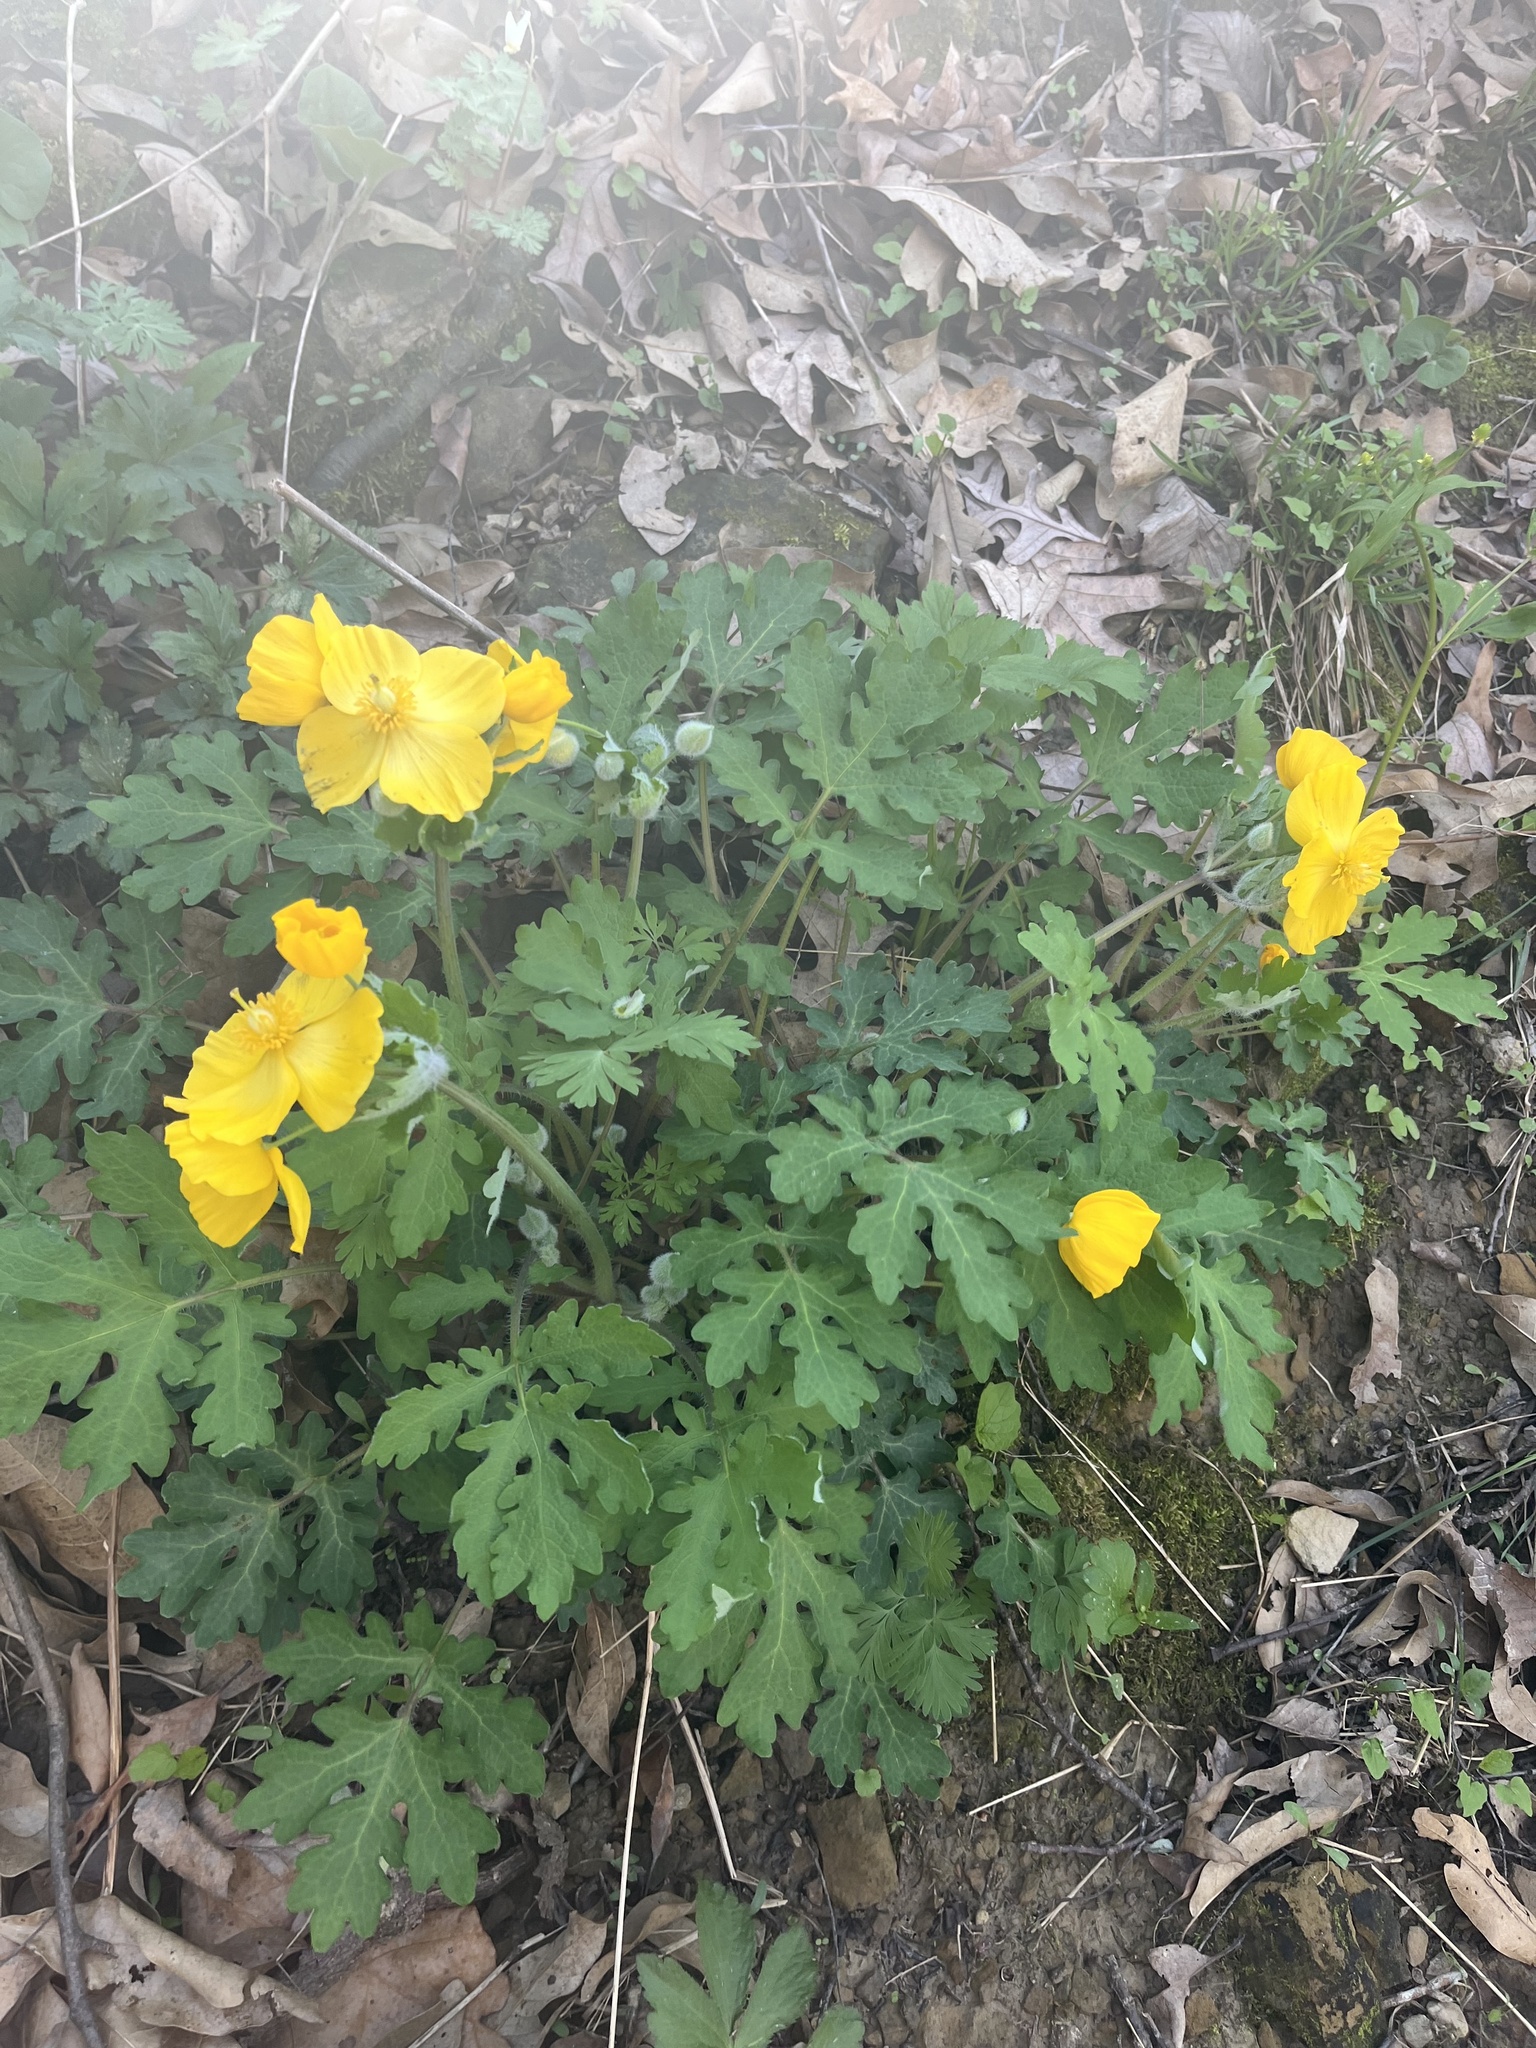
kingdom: Plantae
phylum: Tracheophyta
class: Magnoliopsida
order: Ranunculales
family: Papaveraceae
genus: Stylophorum
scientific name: Stylophorum diphyllum
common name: Celandine poppy
